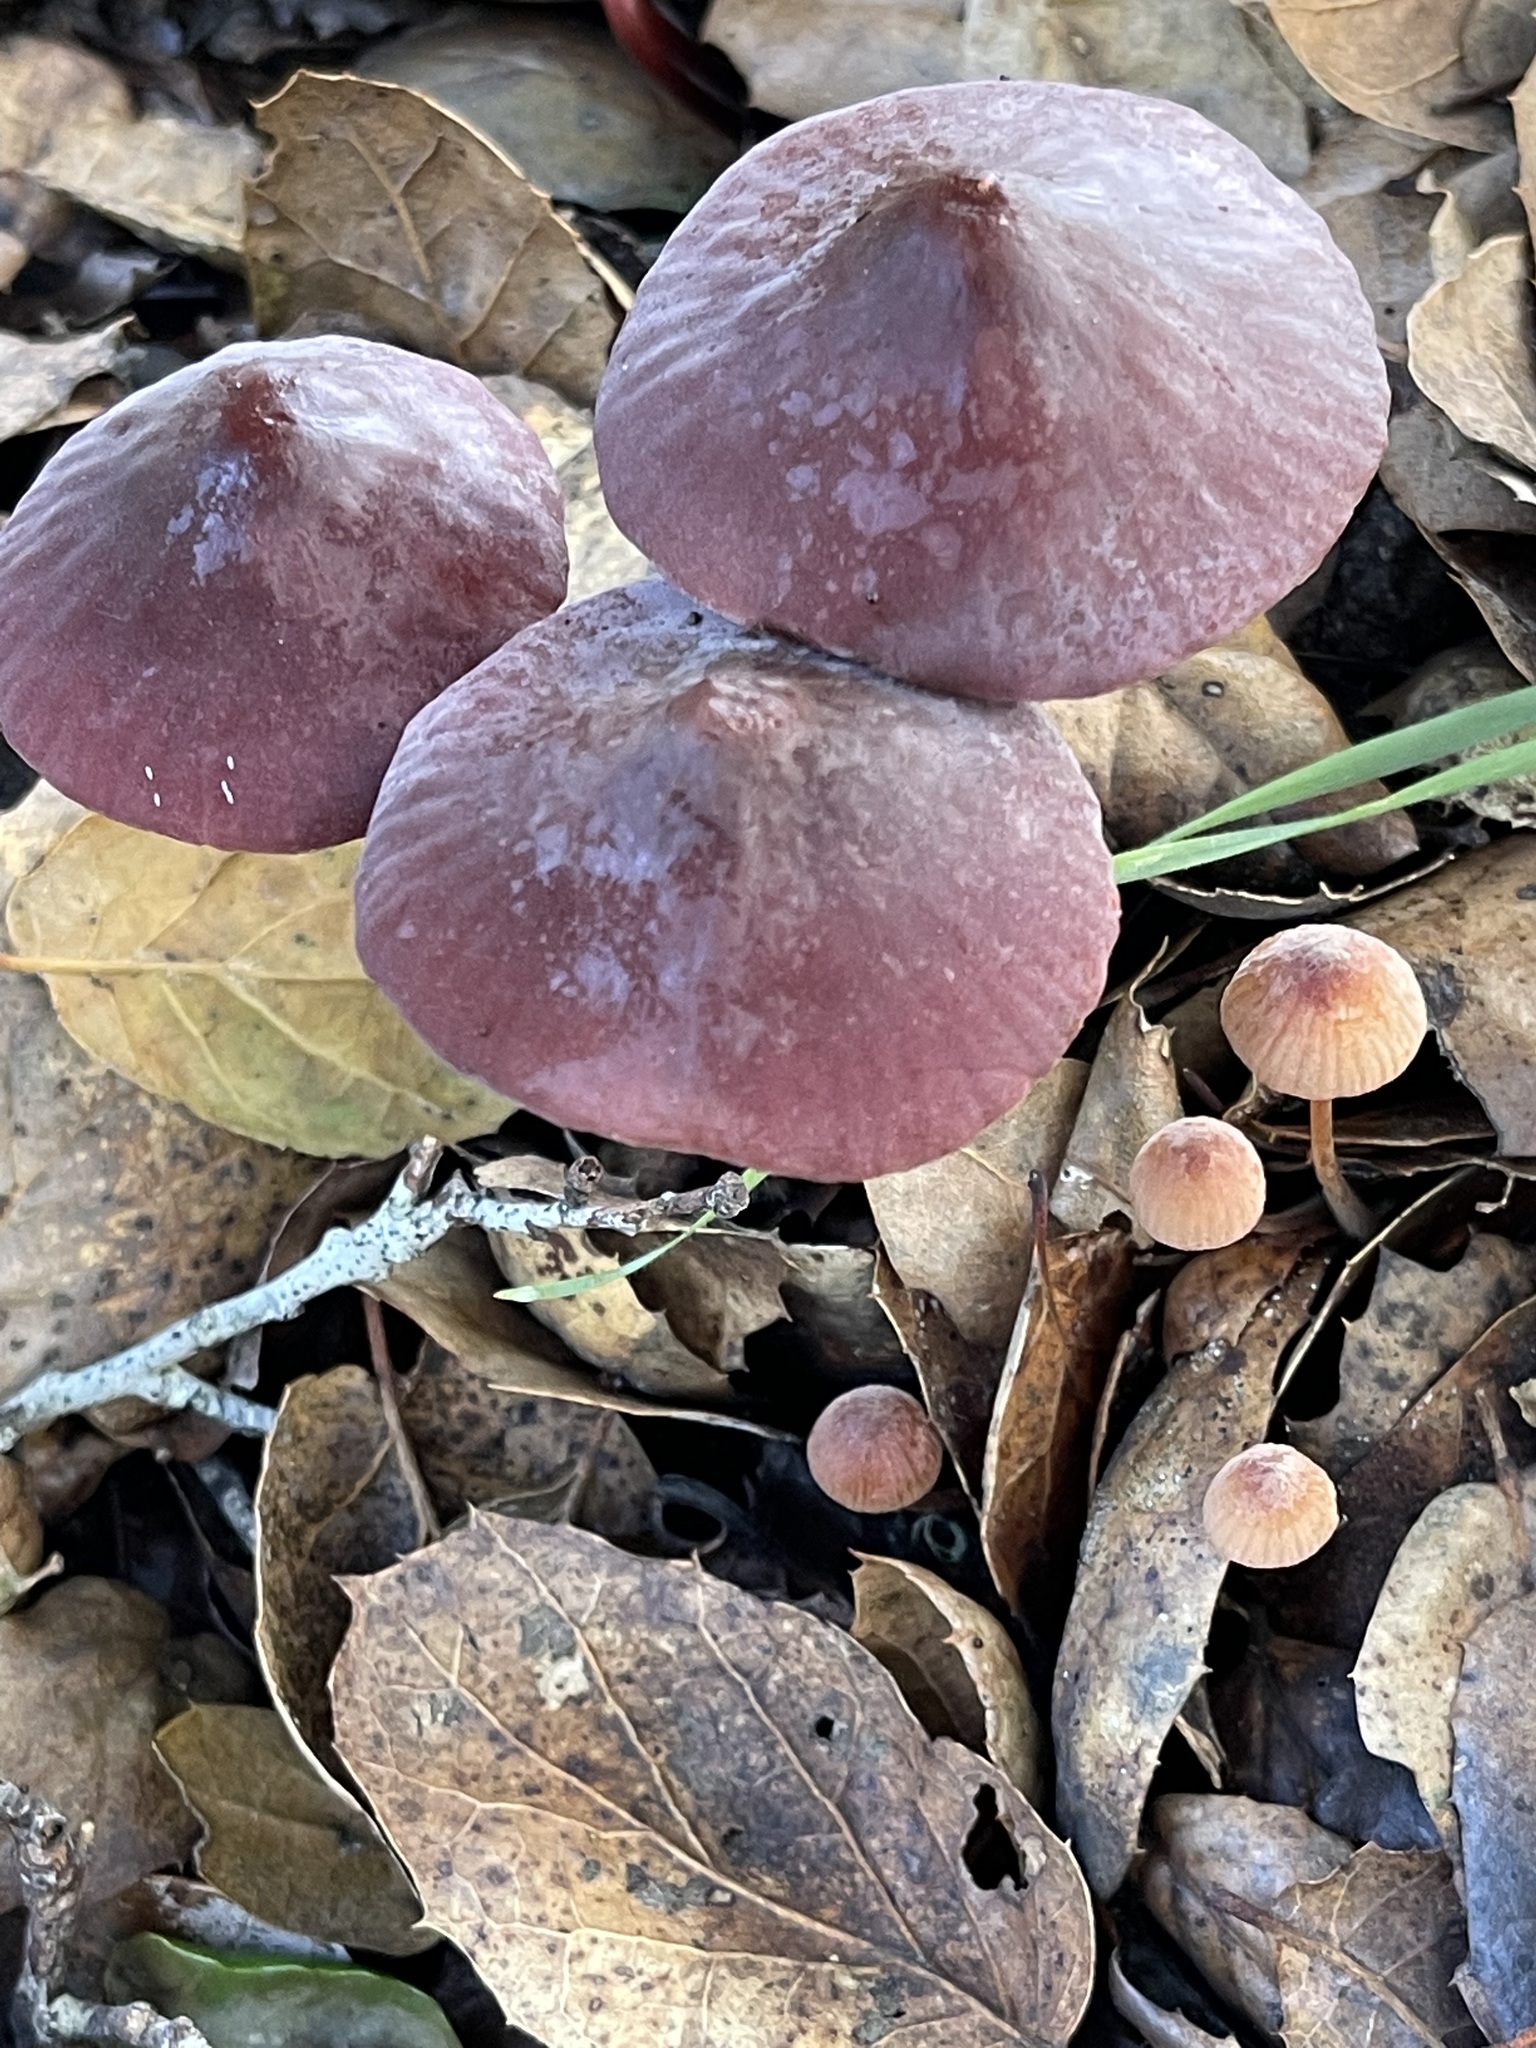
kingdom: Fungi
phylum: Basidiomycota
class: Agaricomycetes
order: Agaricales
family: Marasmiaceae
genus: Marasmius
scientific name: Marasmius plicatulus
